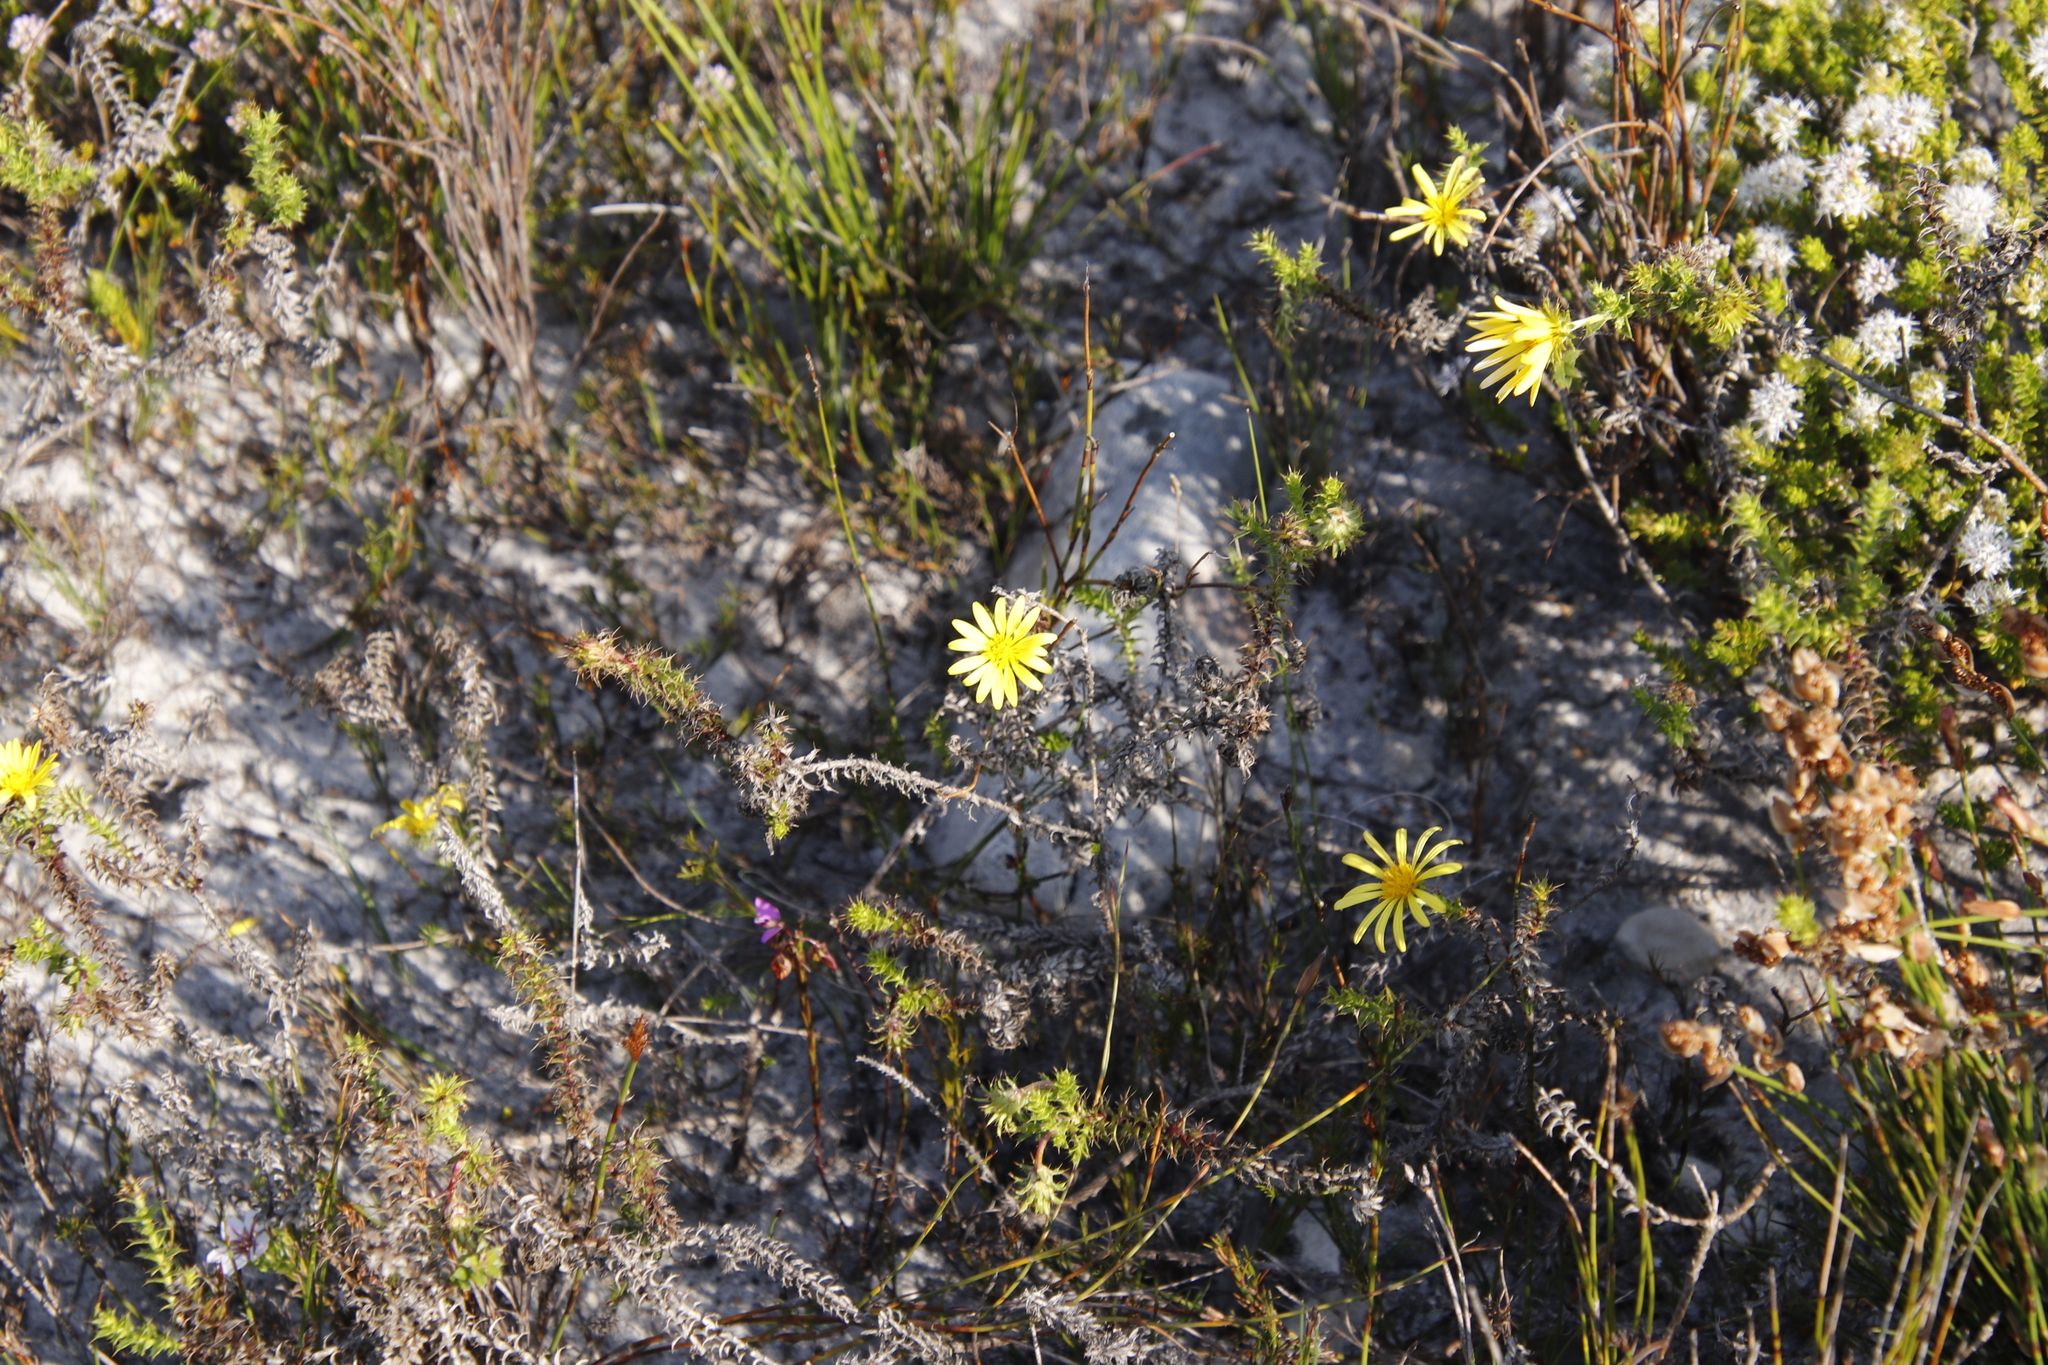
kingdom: Plantae
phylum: Tracheophyta
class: Magnoliopsida
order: Asterales
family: Asteraceae
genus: Cullumia
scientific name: Cullumia setosa
